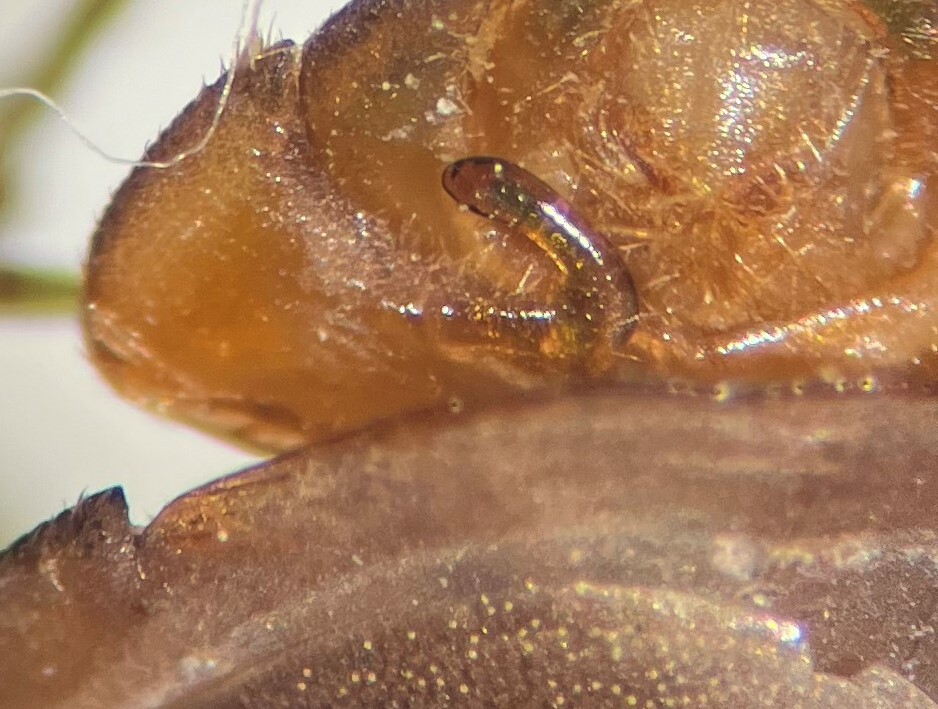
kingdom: Animalia
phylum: Arthropoda
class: Insecta
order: Hemiptera
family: Naucoridae
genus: Ambrysus
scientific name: Ambrysus circumcinctus
